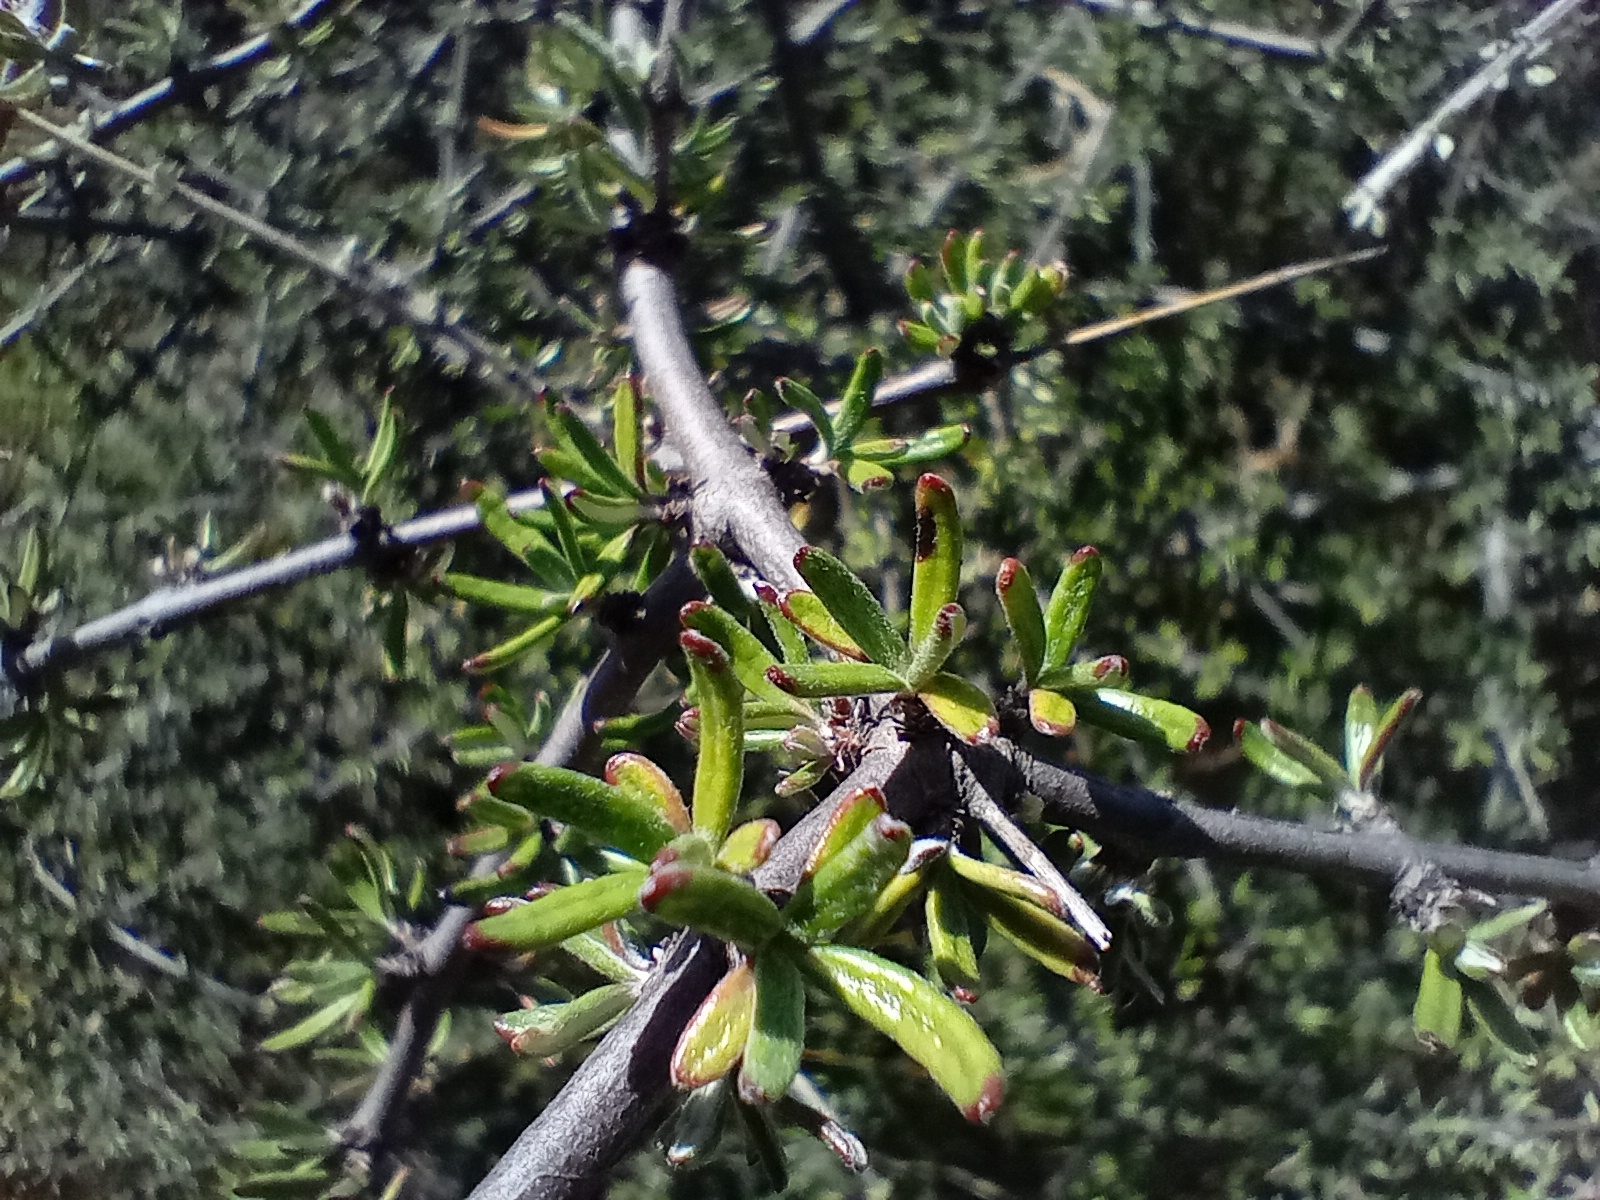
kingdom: Plantae
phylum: Tracheophyta
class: Magnoliopsida
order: Asterales
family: Asteraceae
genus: Olearia
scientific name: Olearia bullata
